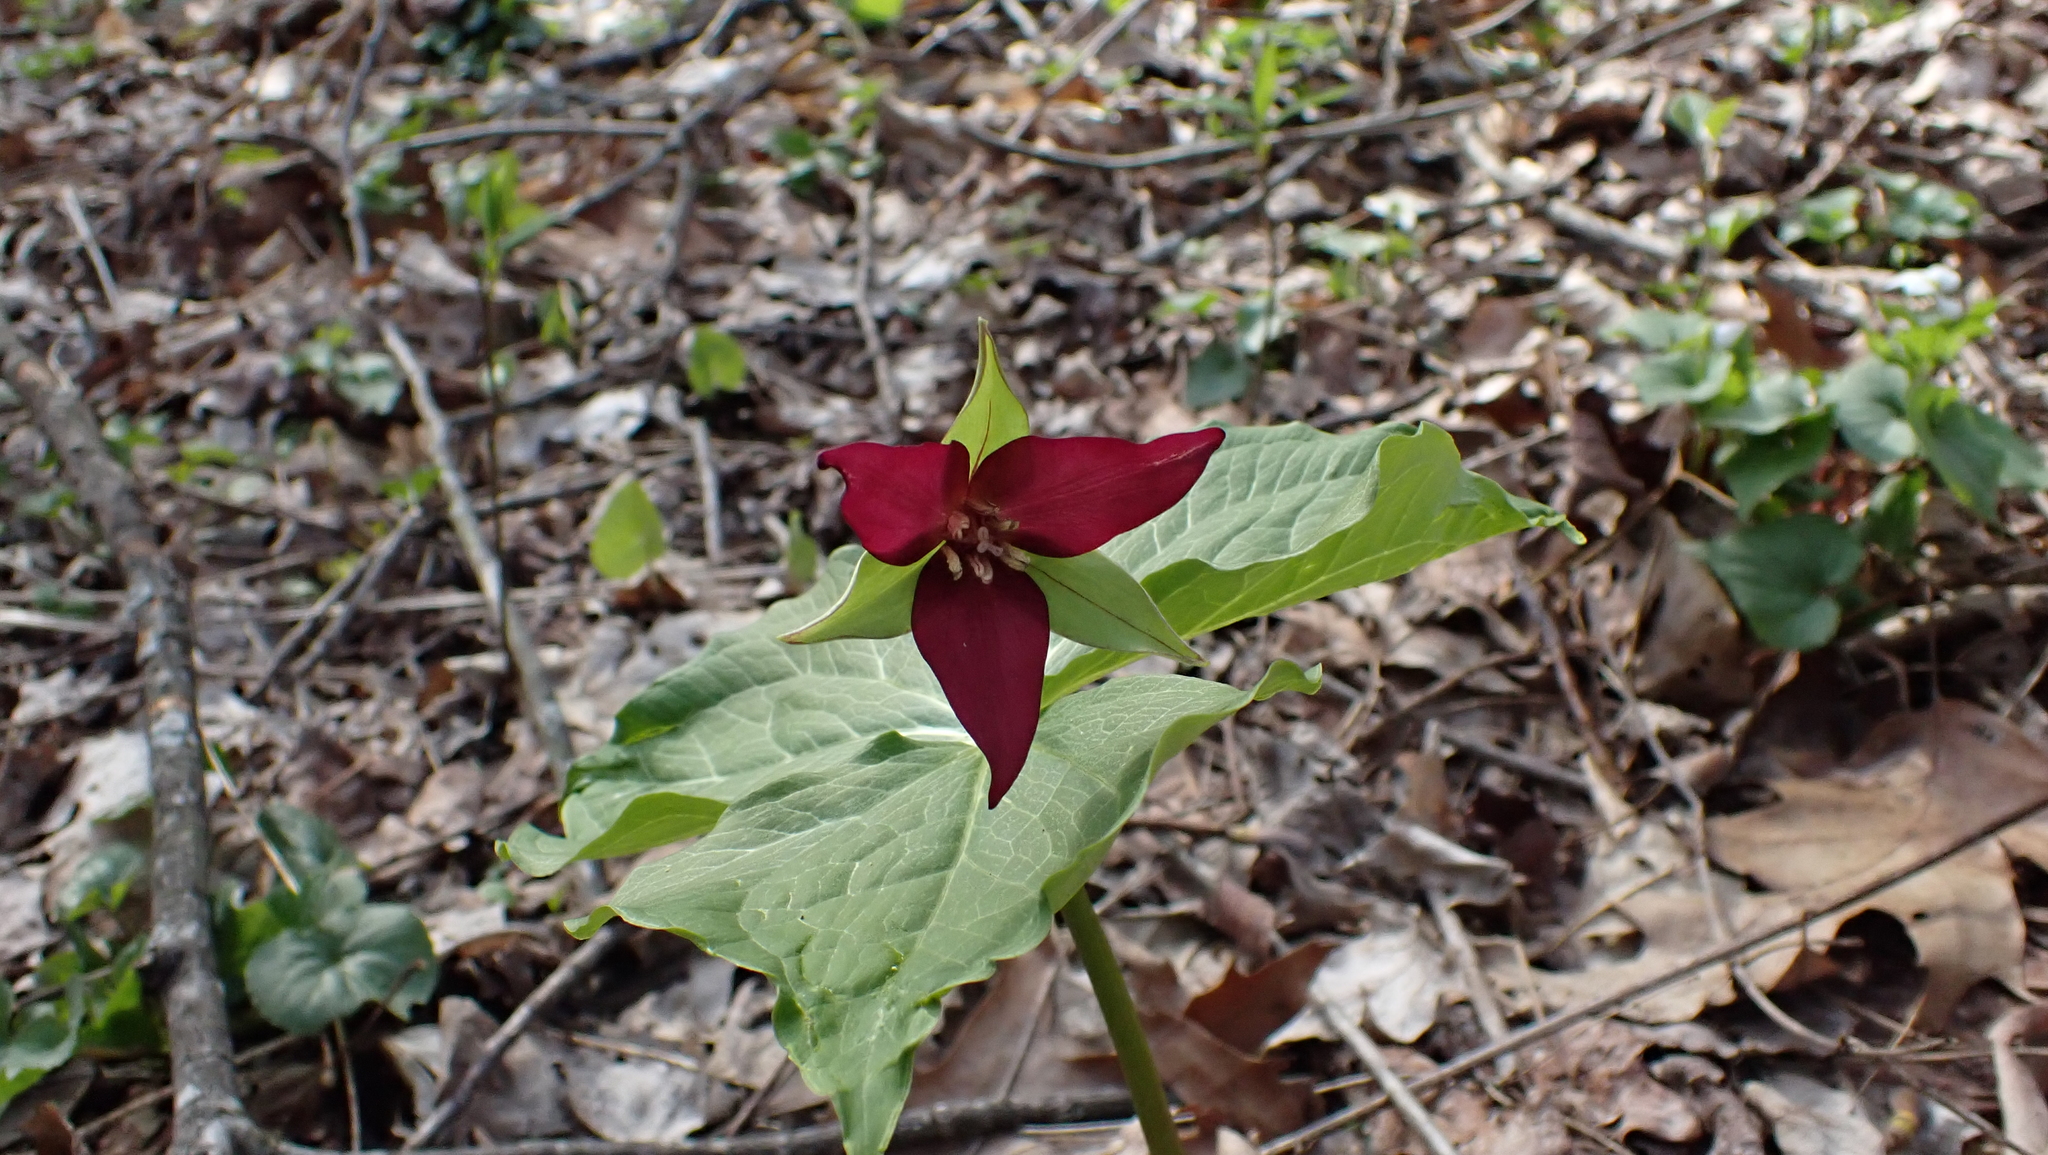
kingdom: Plantae
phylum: Tracheophyta
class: Liliopsida
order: Liliales
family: Melanthiaceae
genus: Trillium
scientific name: Trillium erectum
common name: Purple trillium
